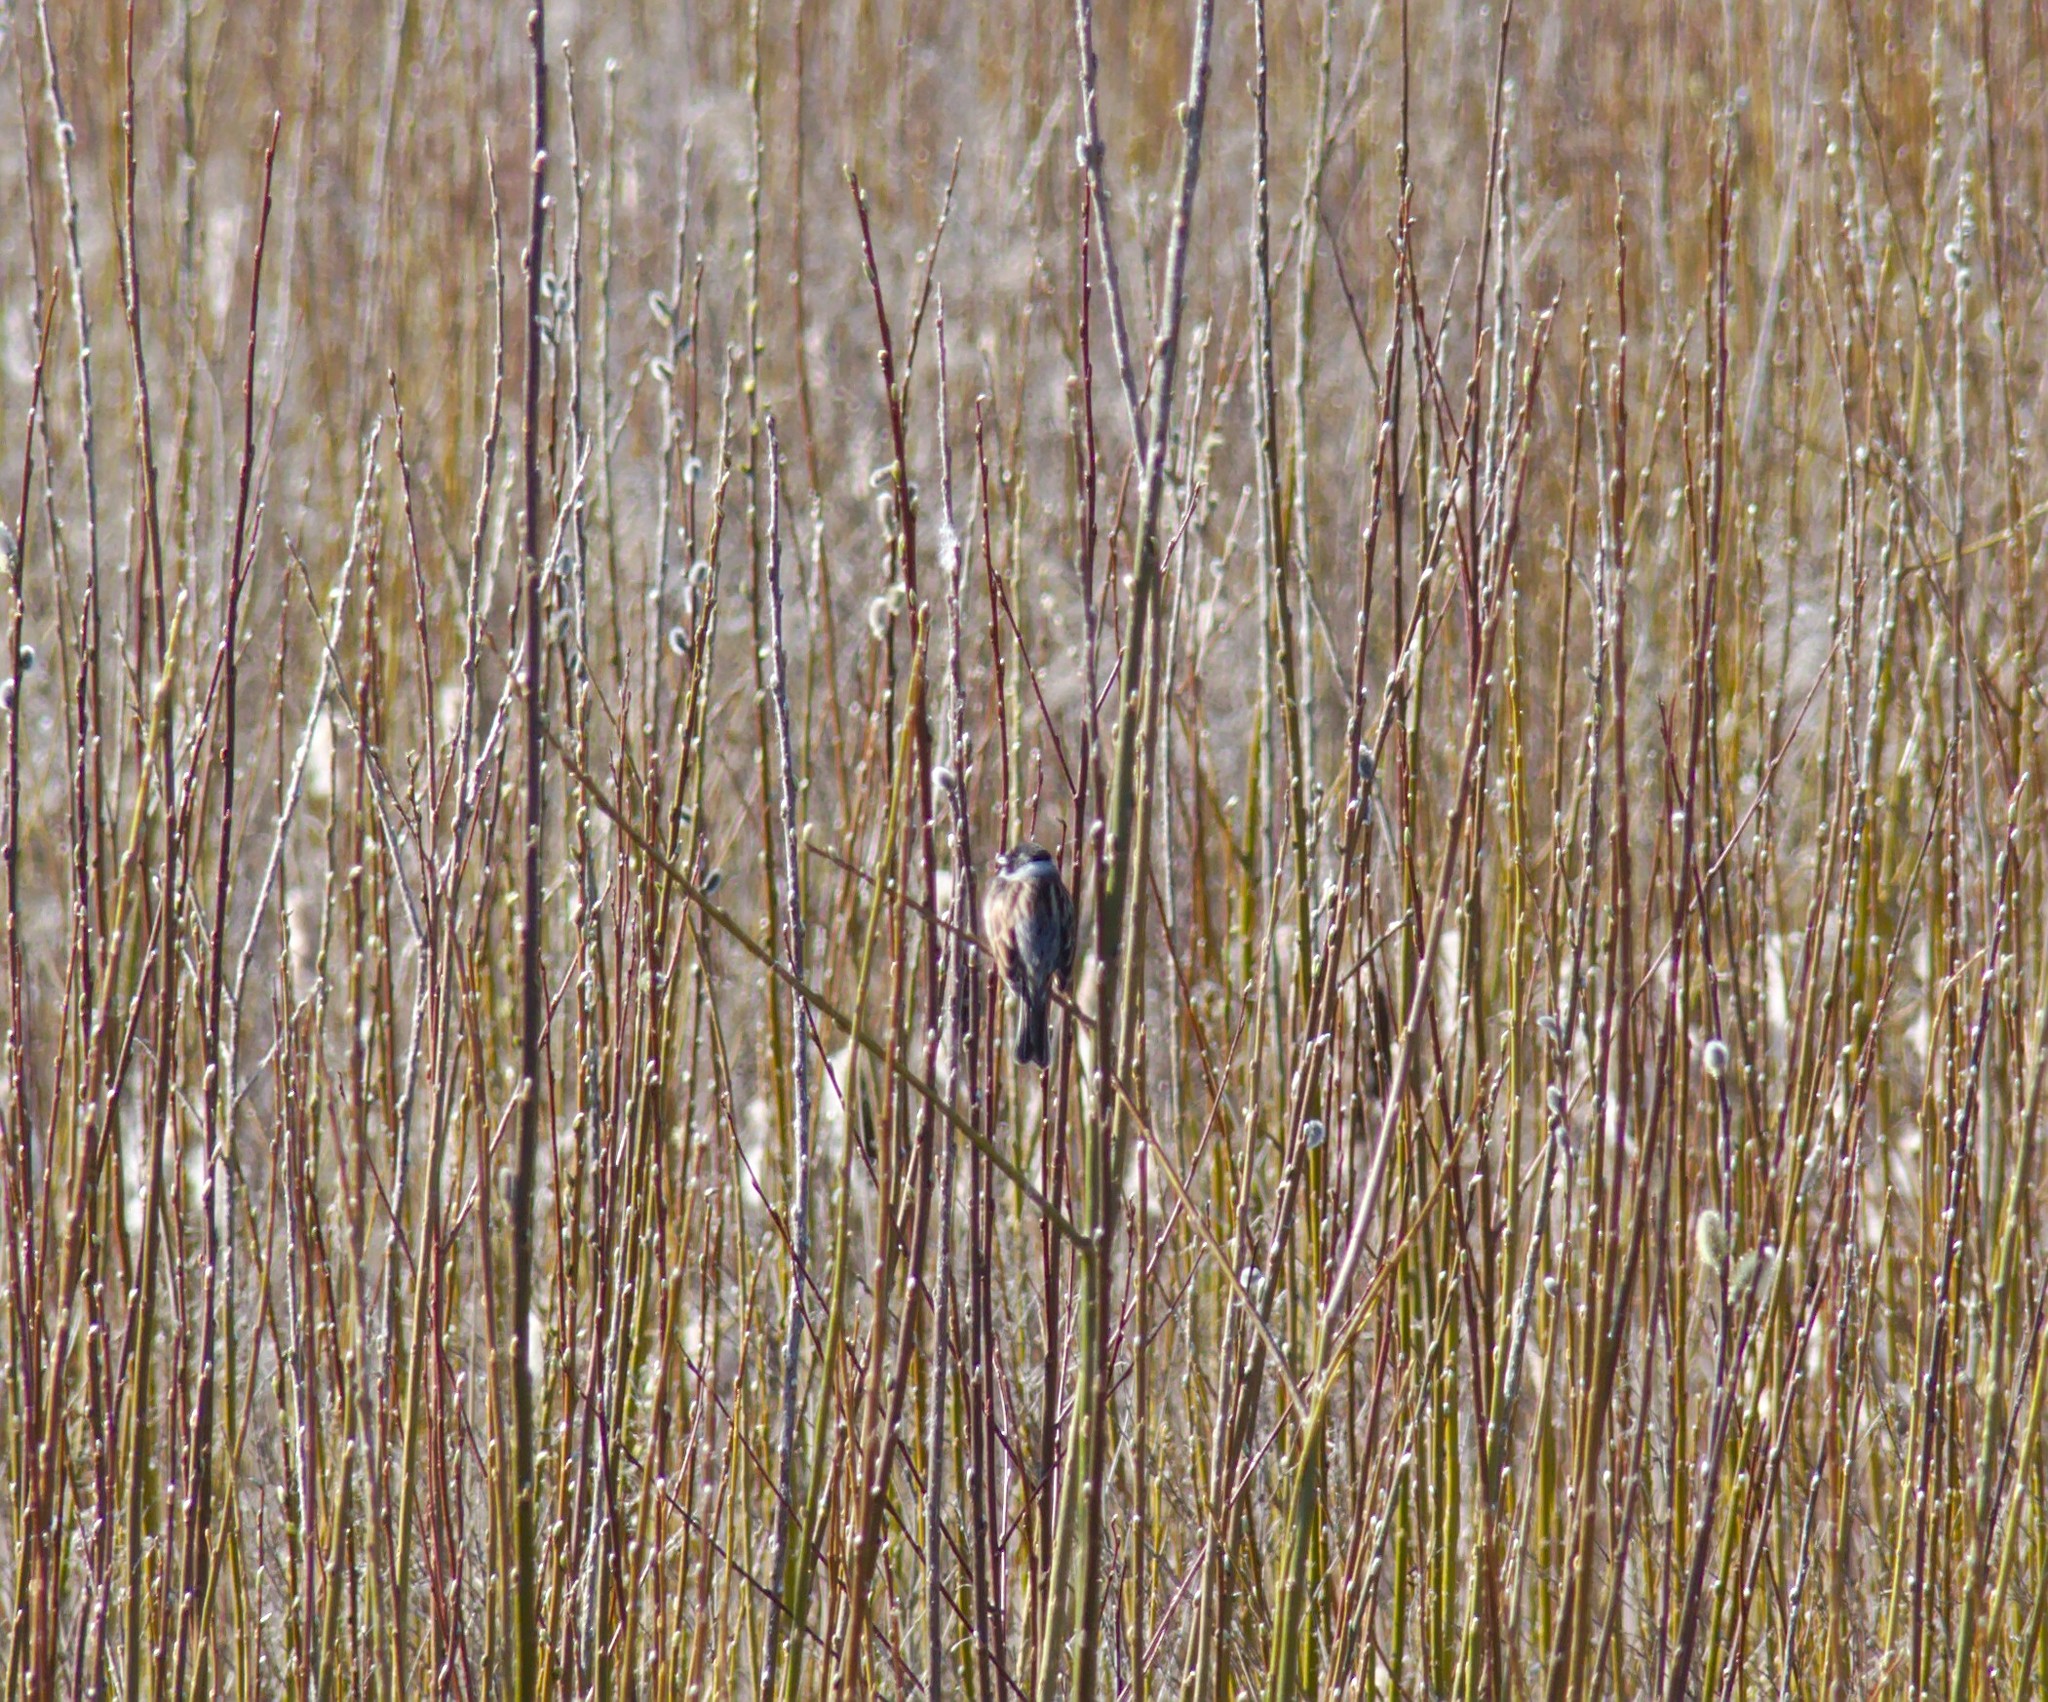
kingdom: Animalia
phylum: Chordata
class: Aves
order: Passeriformes
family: Emberizidae
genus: Emberiza
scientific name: Emberiza schoeniclus
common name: Reed bunting
